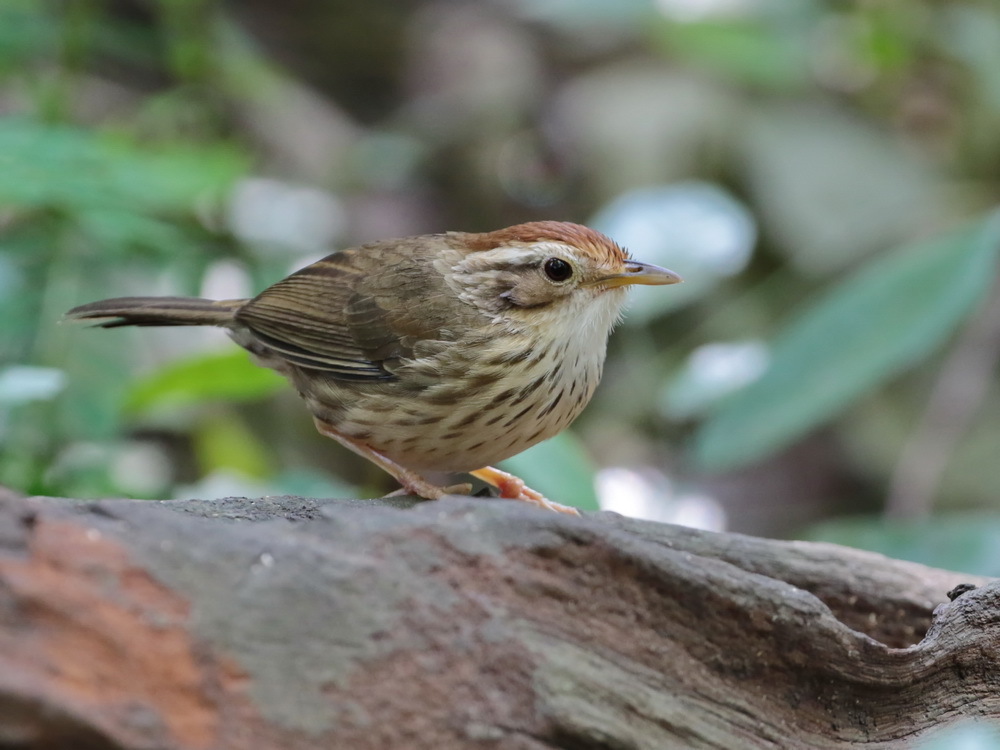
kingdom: Animalia
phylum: Chordata
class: Aves
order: Passeriformes
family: Pellorneidae
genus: Pellorneum
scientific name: Pellorneum ruficeps
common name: Puff-throated babbler
